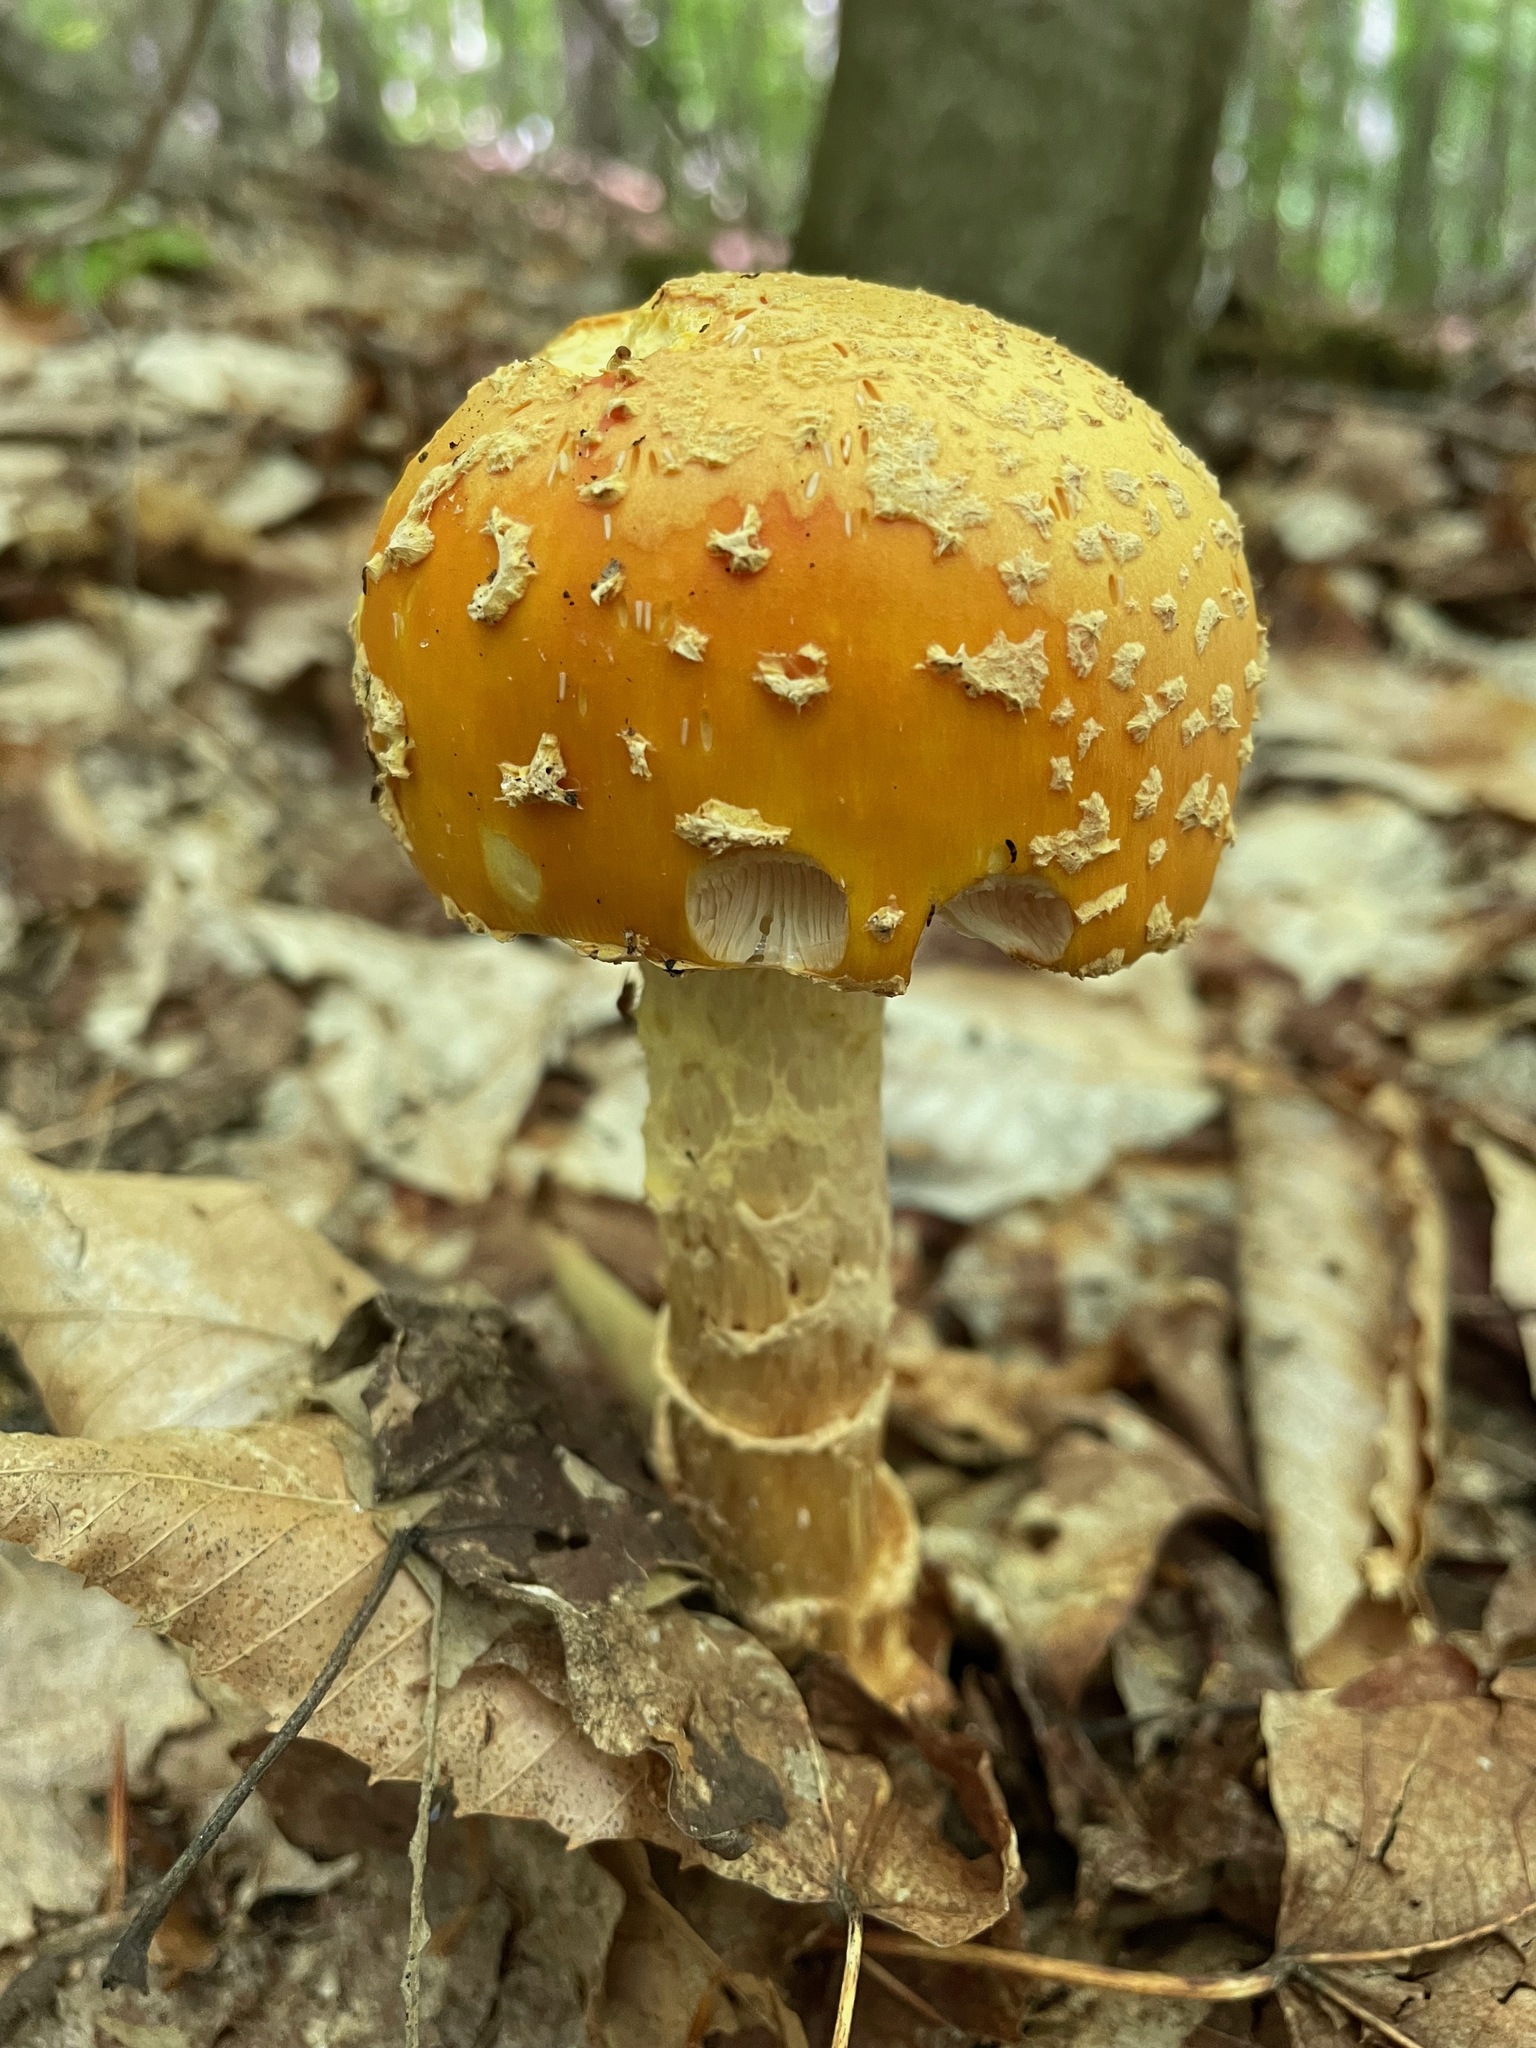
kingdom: Fungi
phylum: Basidiomycota
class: Agaricomycetes
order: Agaricales
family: Amanitaceae
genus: Amanita
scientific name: Amanita muscaria
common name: Fly agaric
